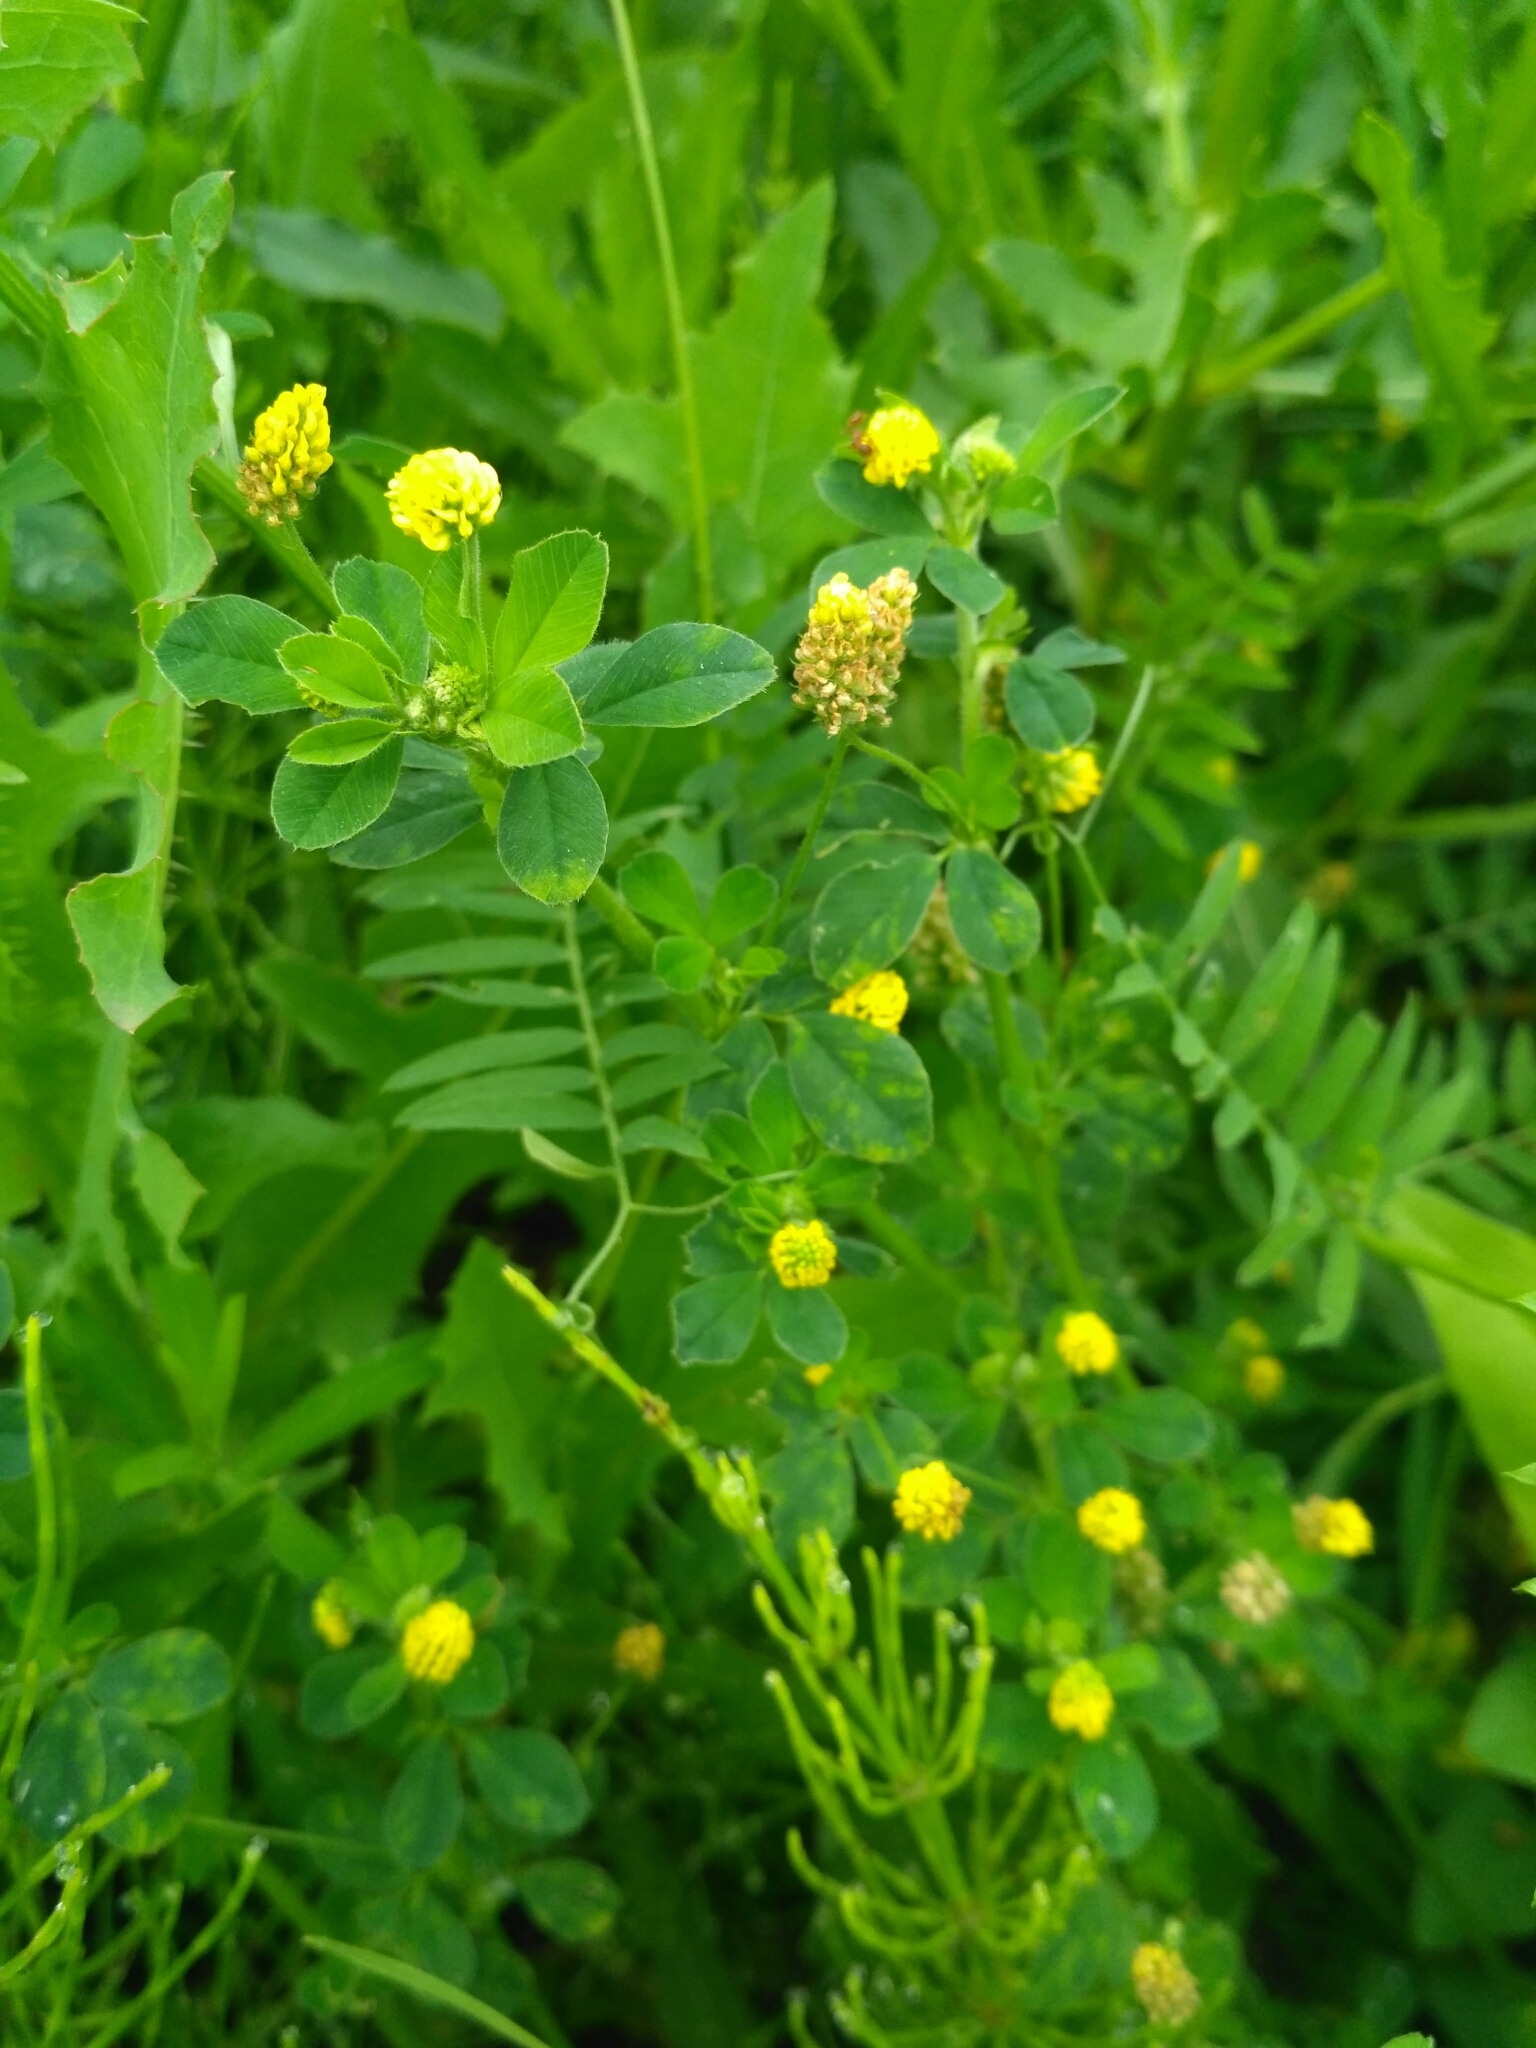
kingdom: Plantae
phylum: Tracheophyta
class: Magnoliopsida
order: Fabales
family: Fabaceae
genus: Medicago
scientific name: Medicago lupulina
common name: Black medick
